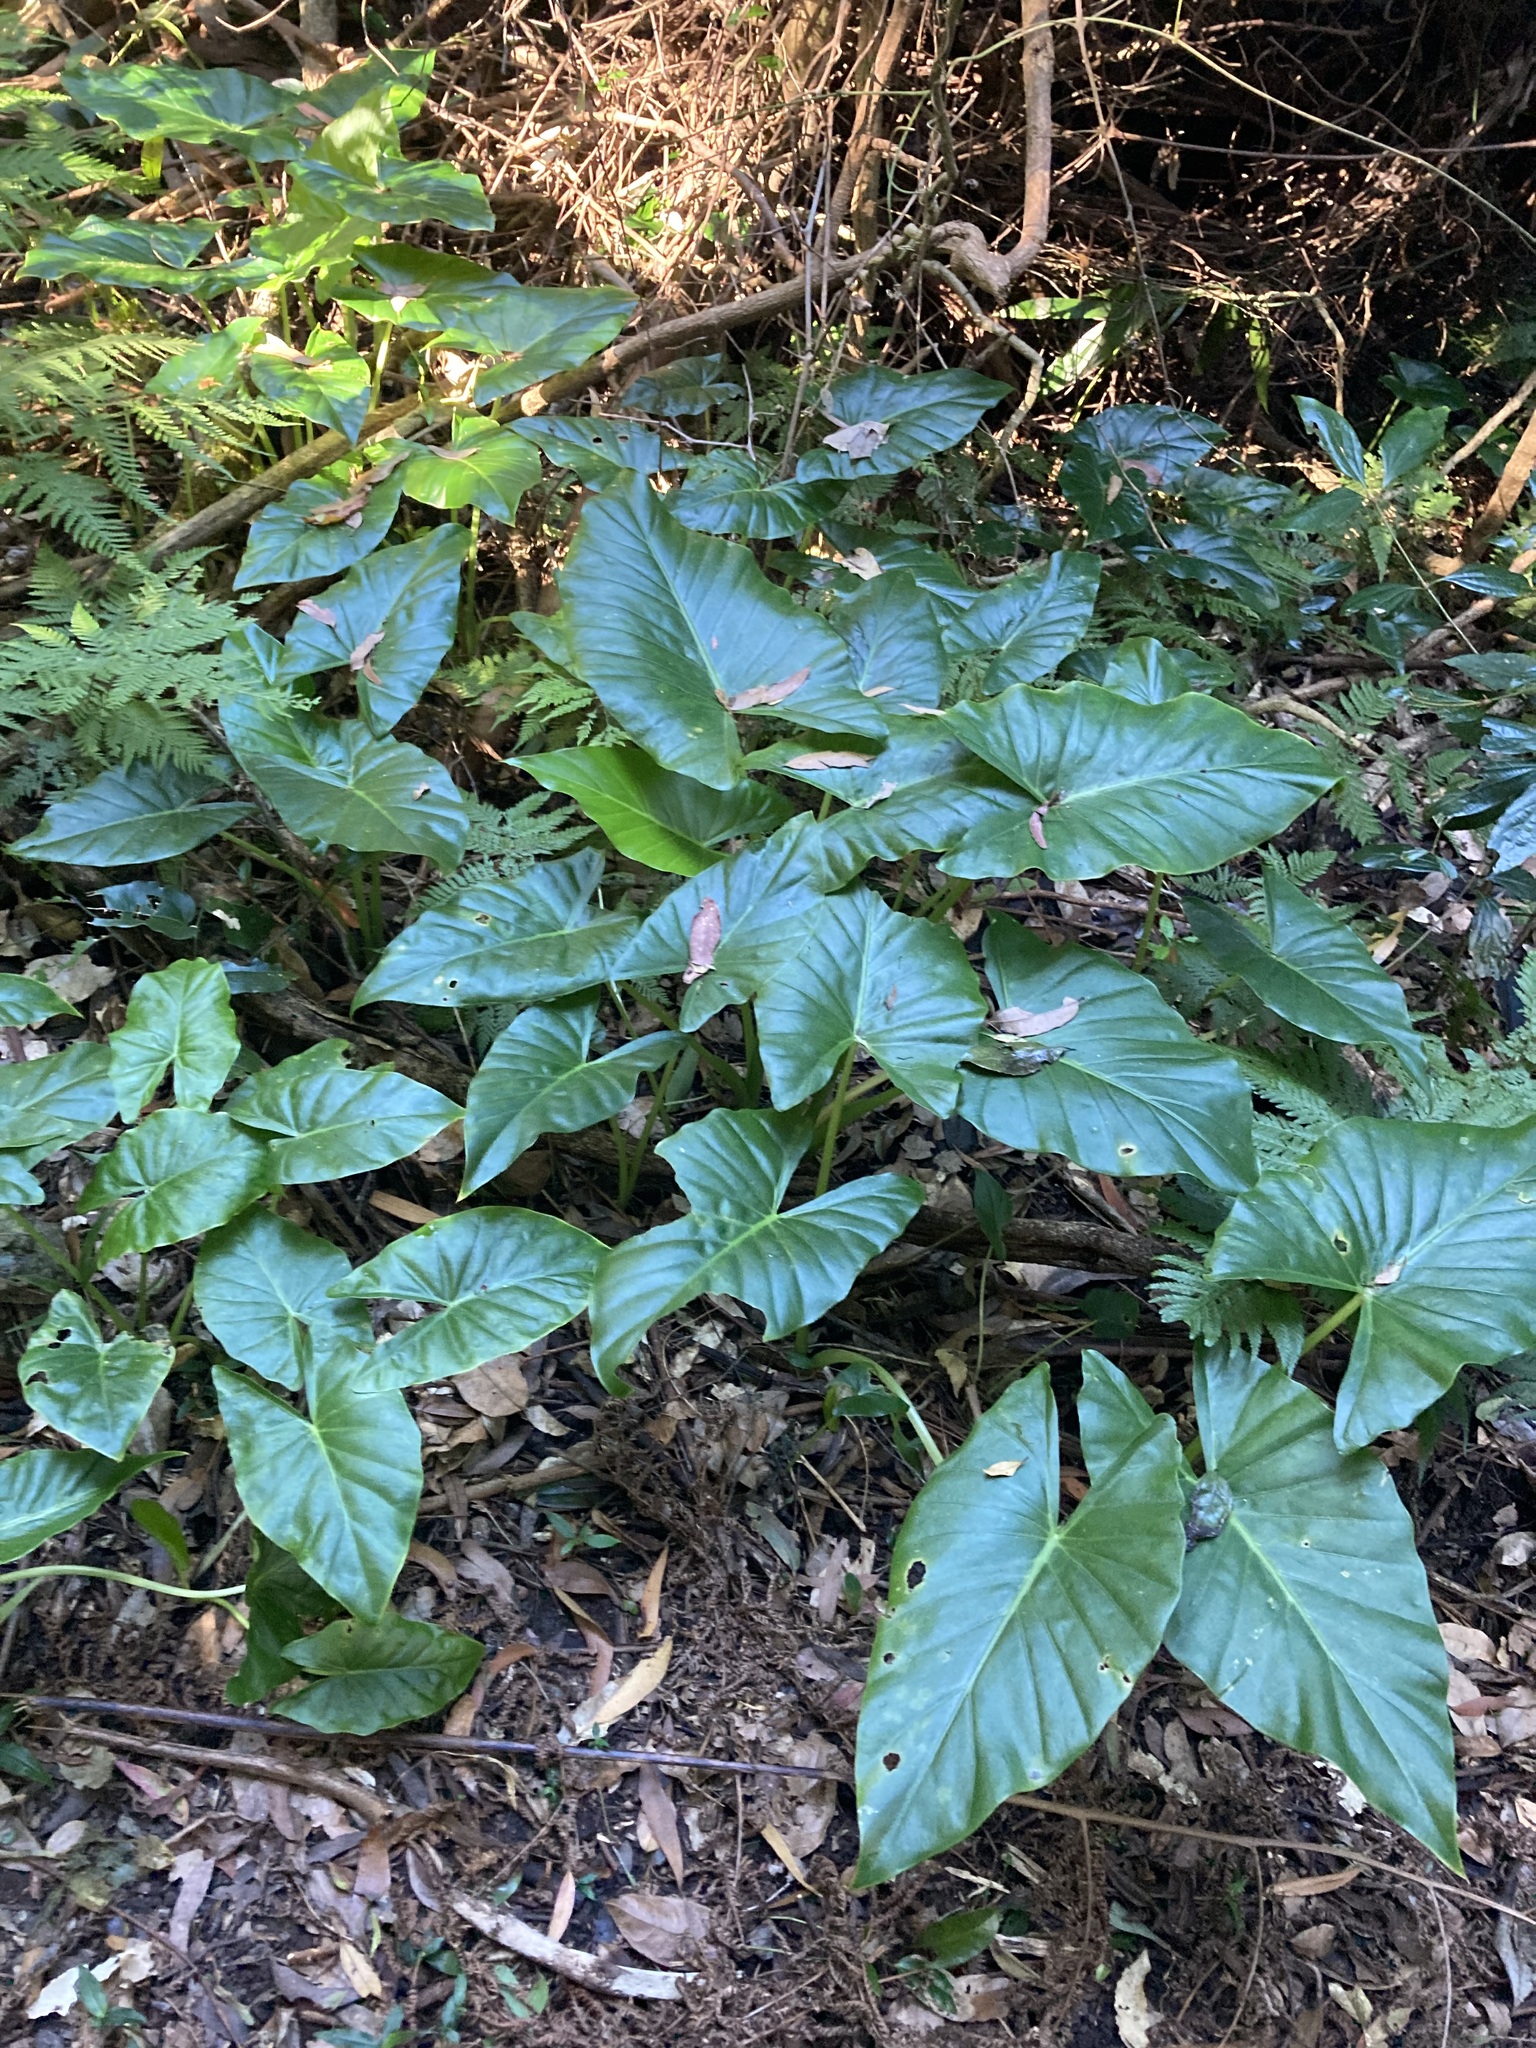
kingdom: Plantae
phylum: Tracheophyta
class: Liliopsida
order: Alismatales
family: Araceae
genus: Alocasia
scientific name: Alocasia brisbanensis
